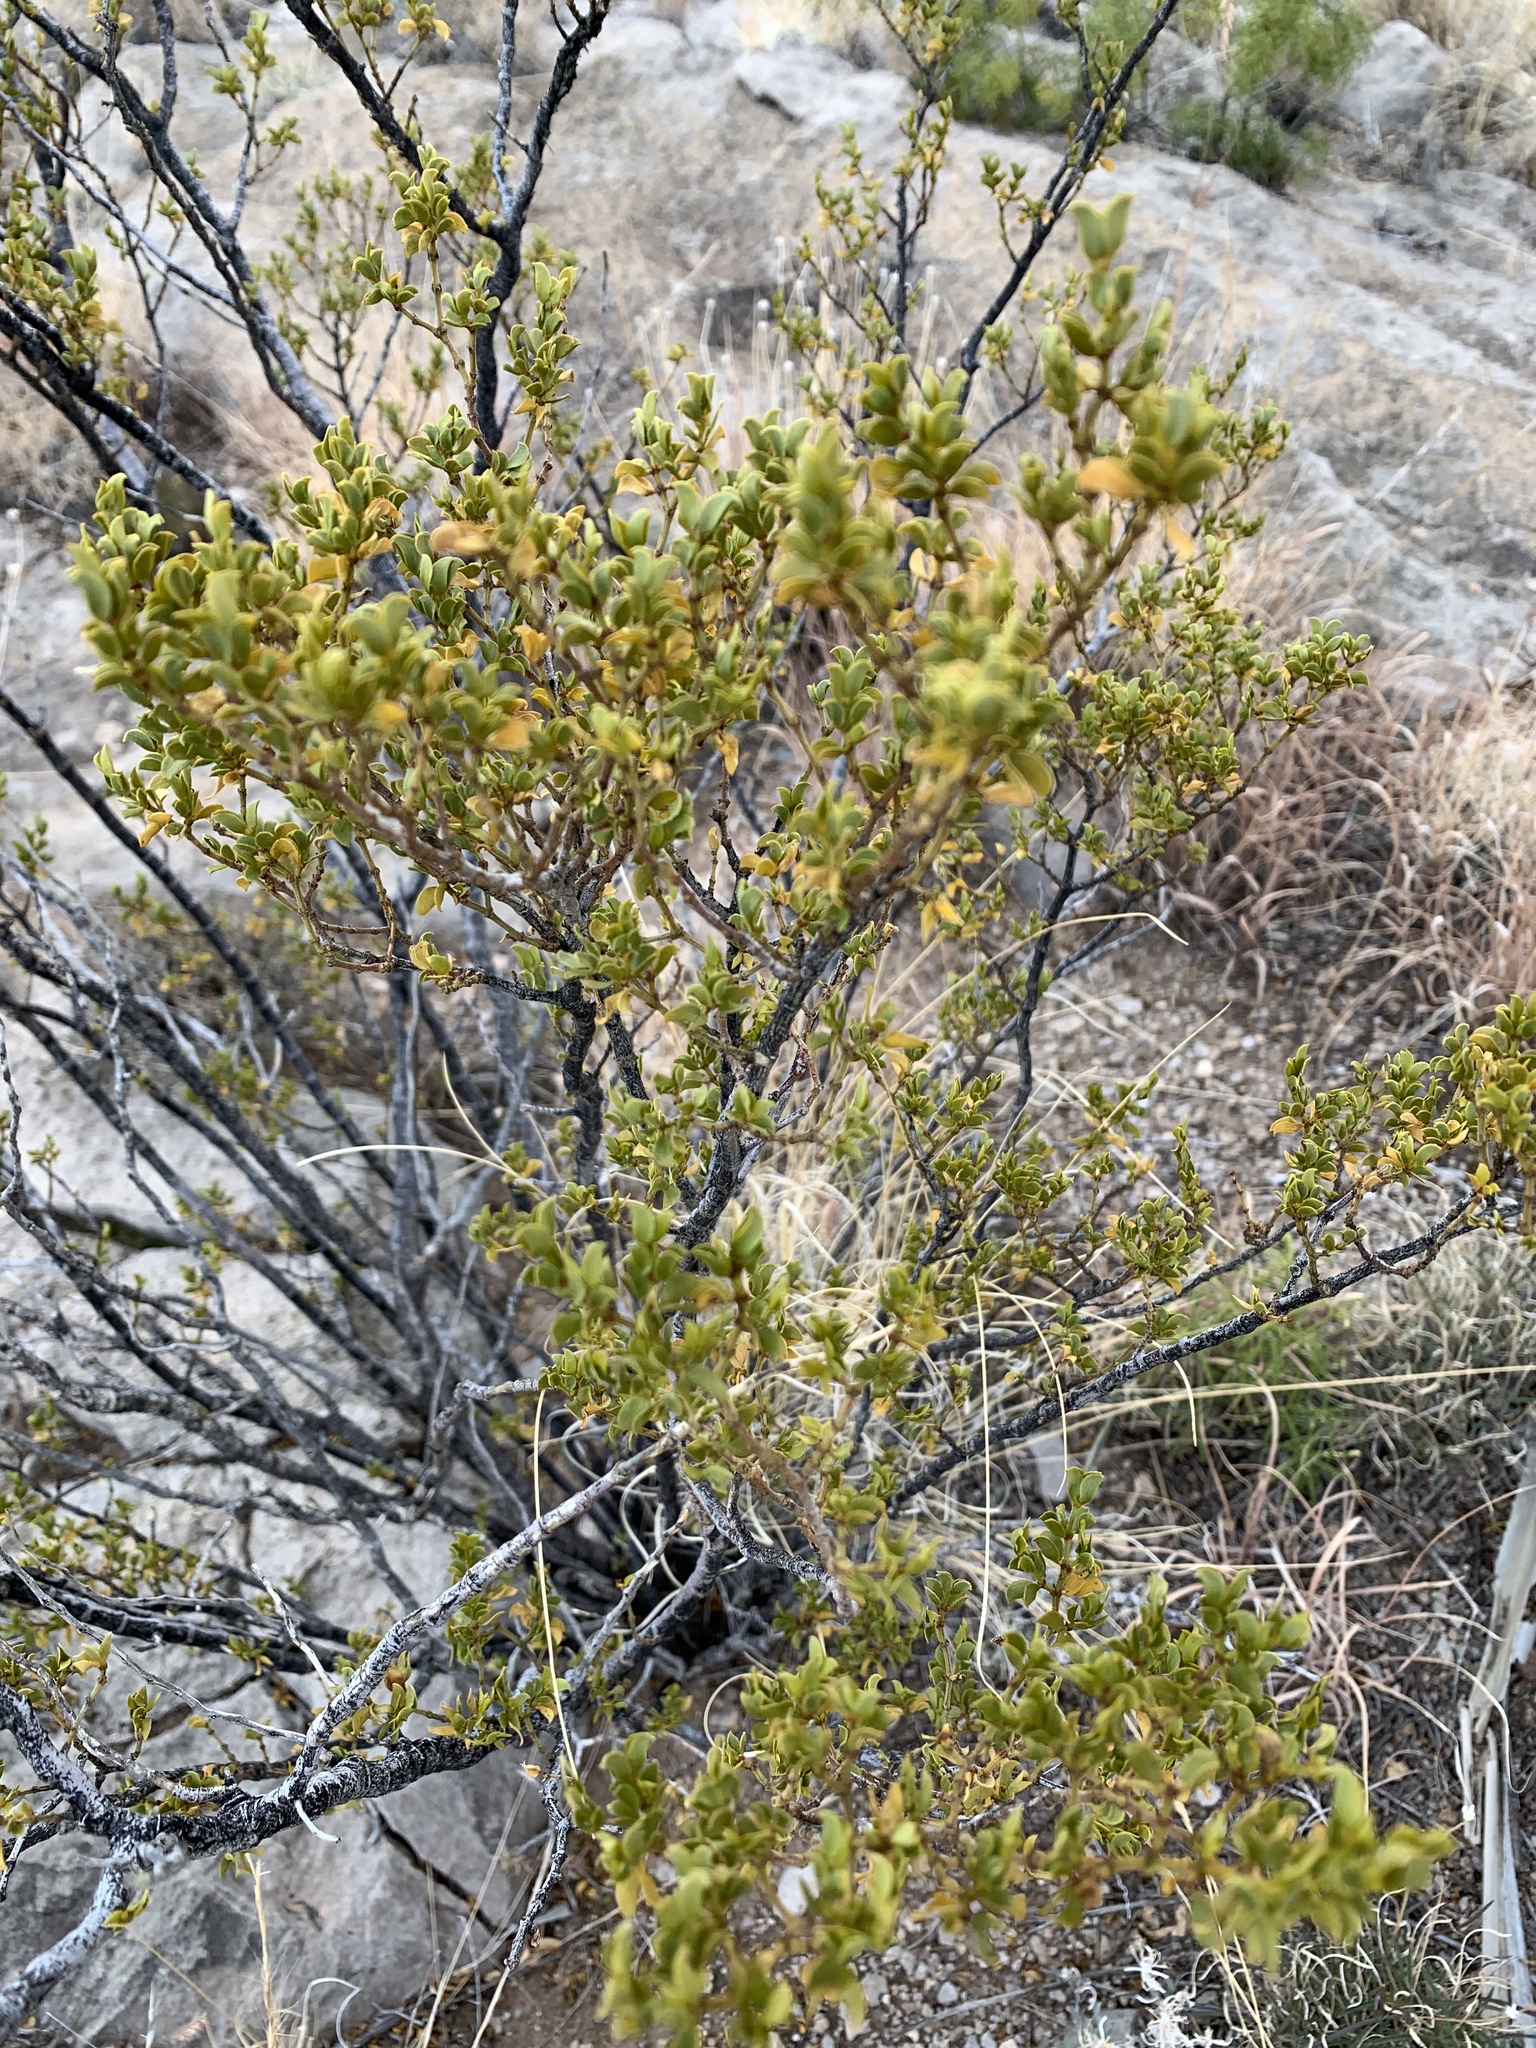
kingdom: Plantae
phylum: Tracheophyta
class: Magnoliopsida
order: Zygophyllales
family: Zygophyllaceae
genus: Larrea
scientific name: Larrea tridentata
